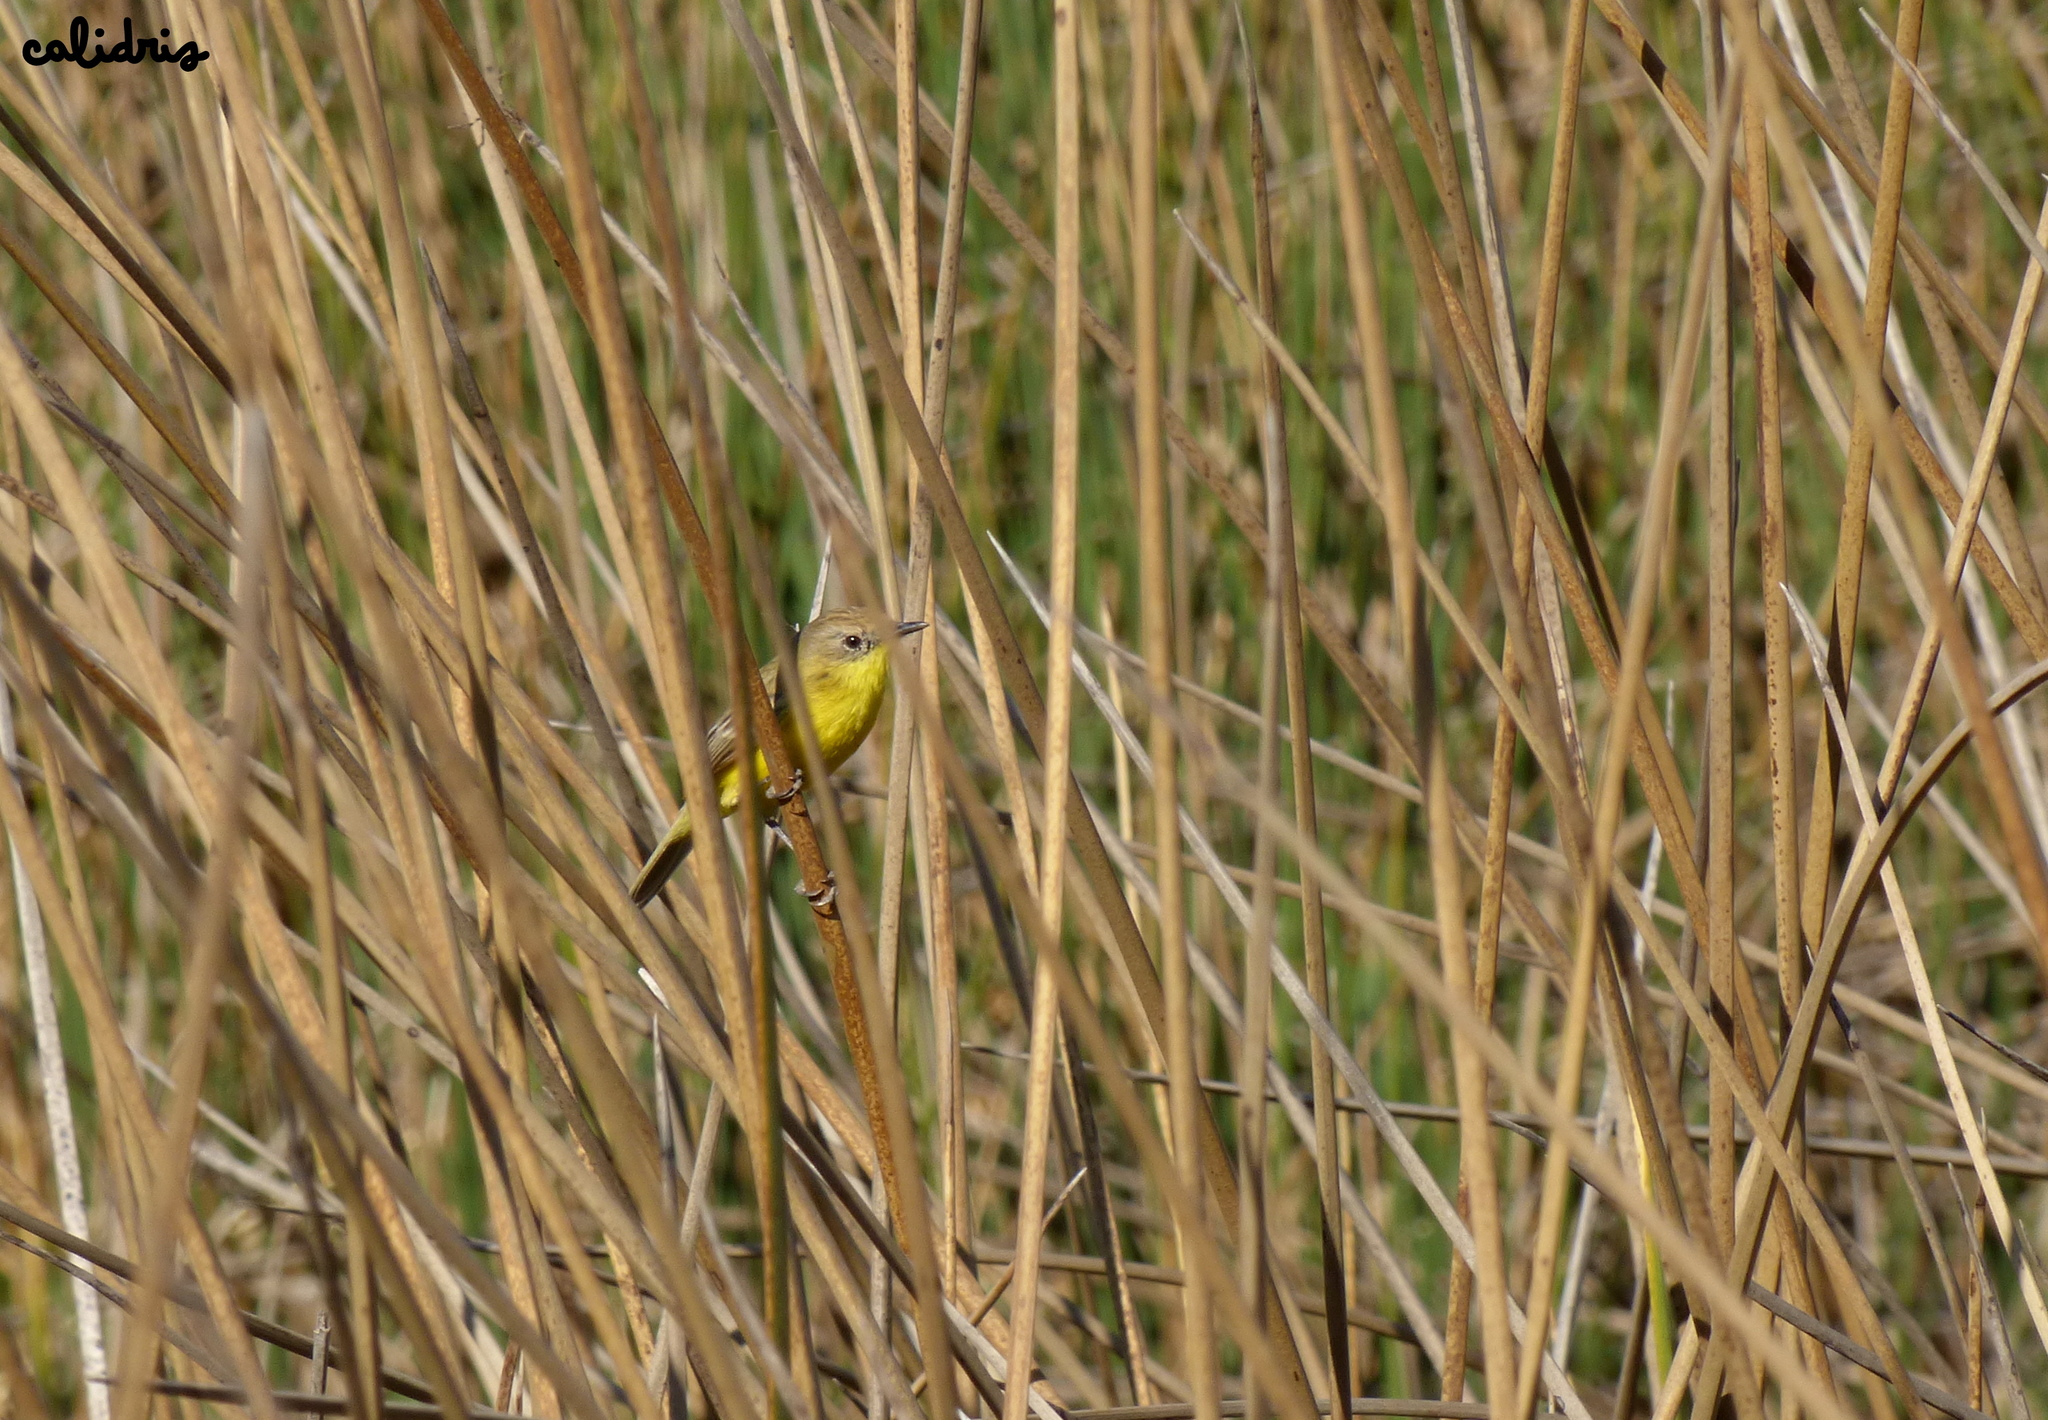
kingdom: Animalia
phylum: Chordata
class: Aves
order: Passeriformes
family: Tyrannidae
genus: Pseudocolopteryx
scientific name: Pseudocolopteryx dinelliana
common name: Dinelli's doradito
